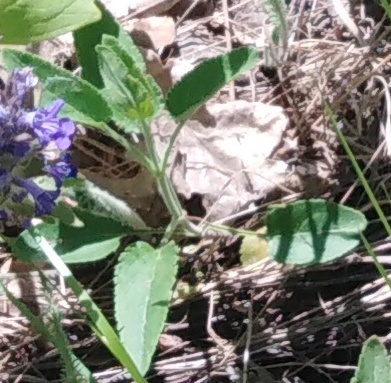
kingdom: Plantae
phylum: Tracheophyta
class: Magnoliopsida
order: Lamiales
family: Plantaginaceae
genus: Veronica
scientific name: Veronica spicata
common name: Spiked speedwell
